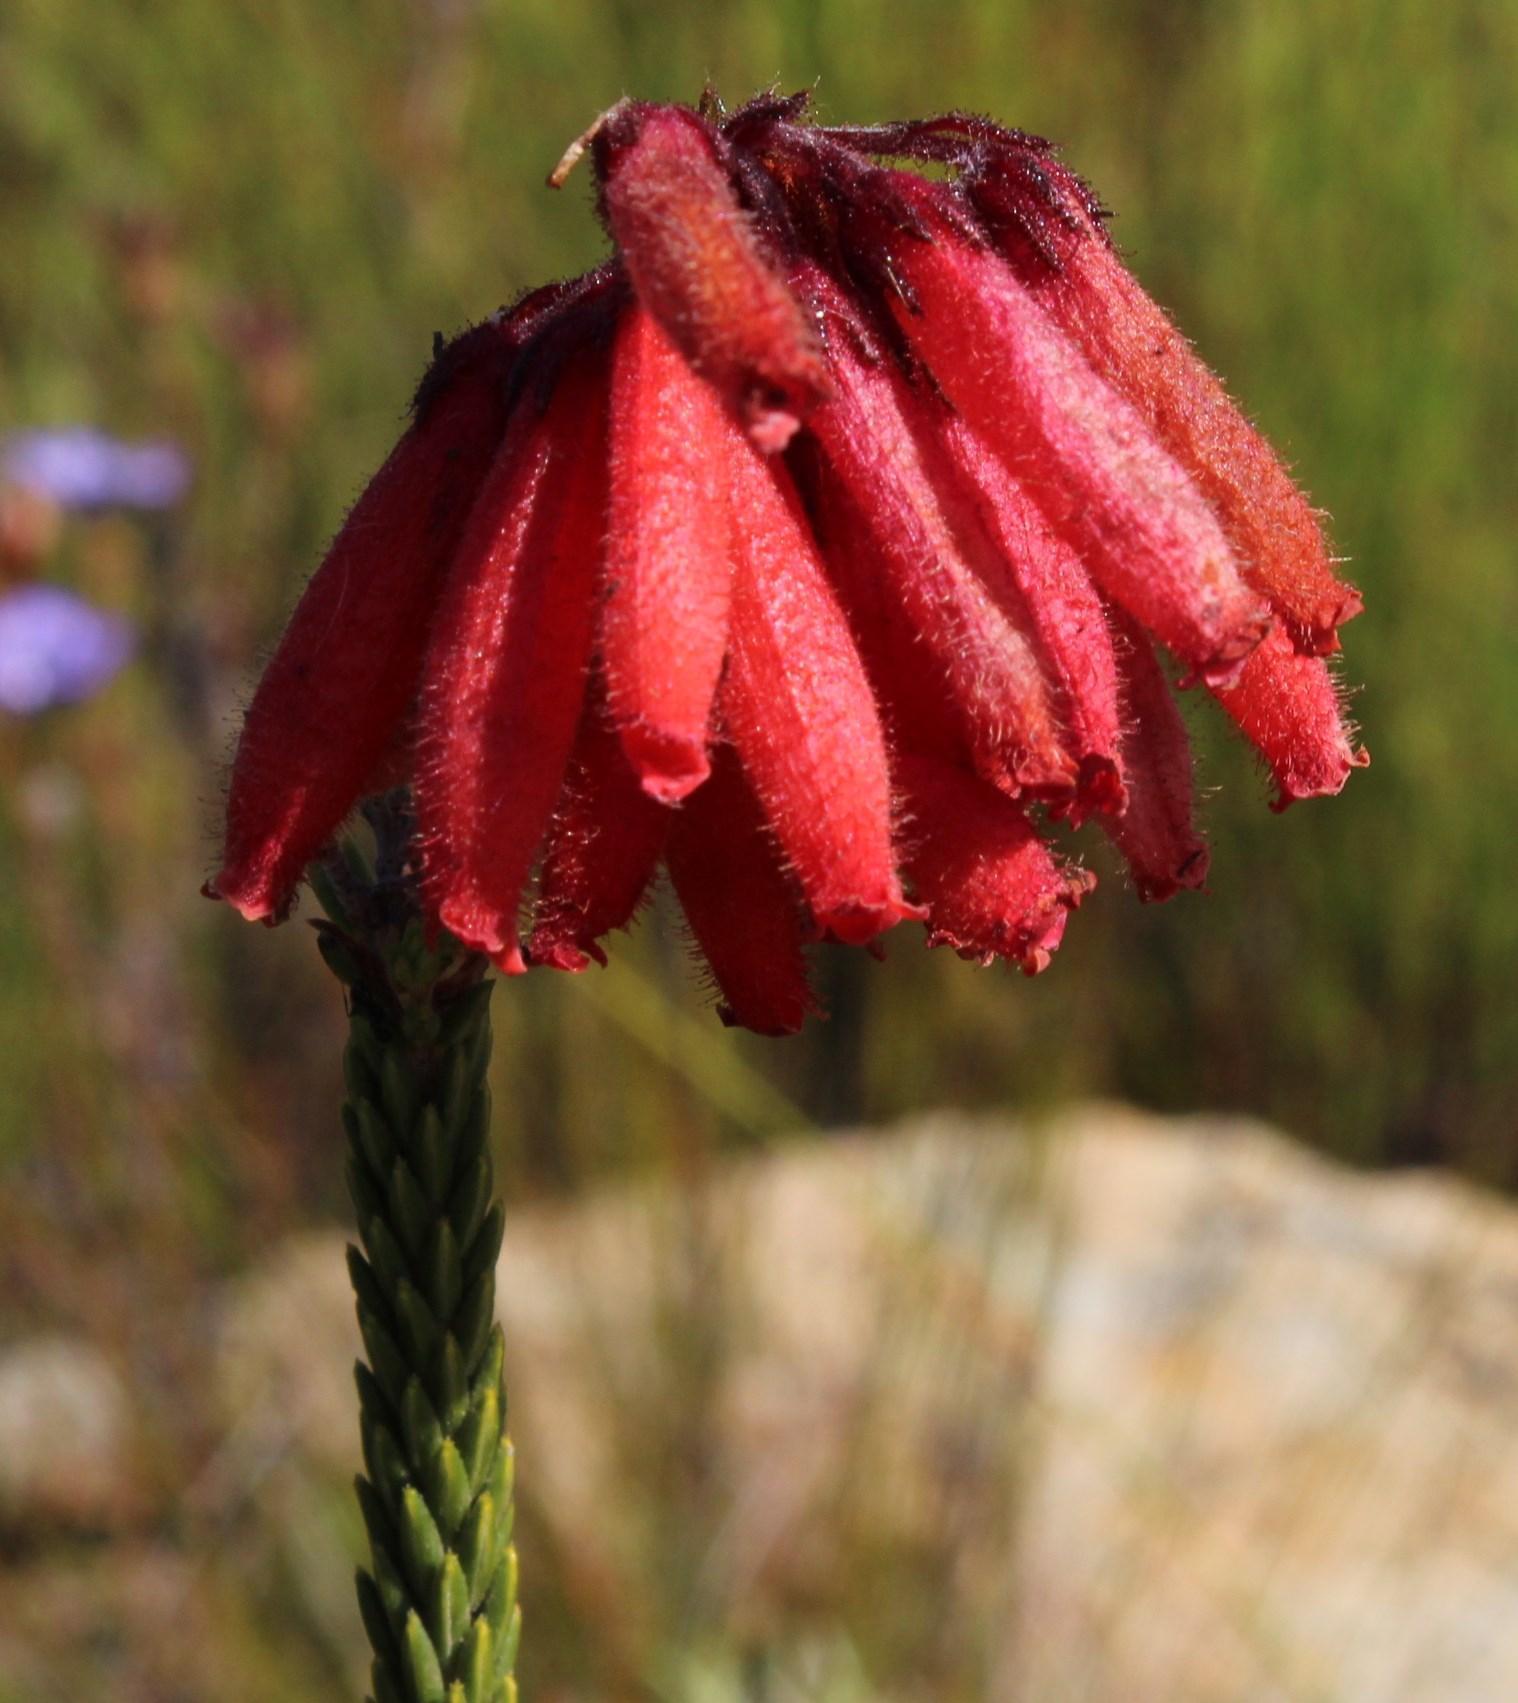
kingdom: Plantae
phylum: Tracheophyta
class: Magnoliopsida
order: Ericales
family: Ericaceae
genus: Erica
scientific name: Erica cerinthoides
